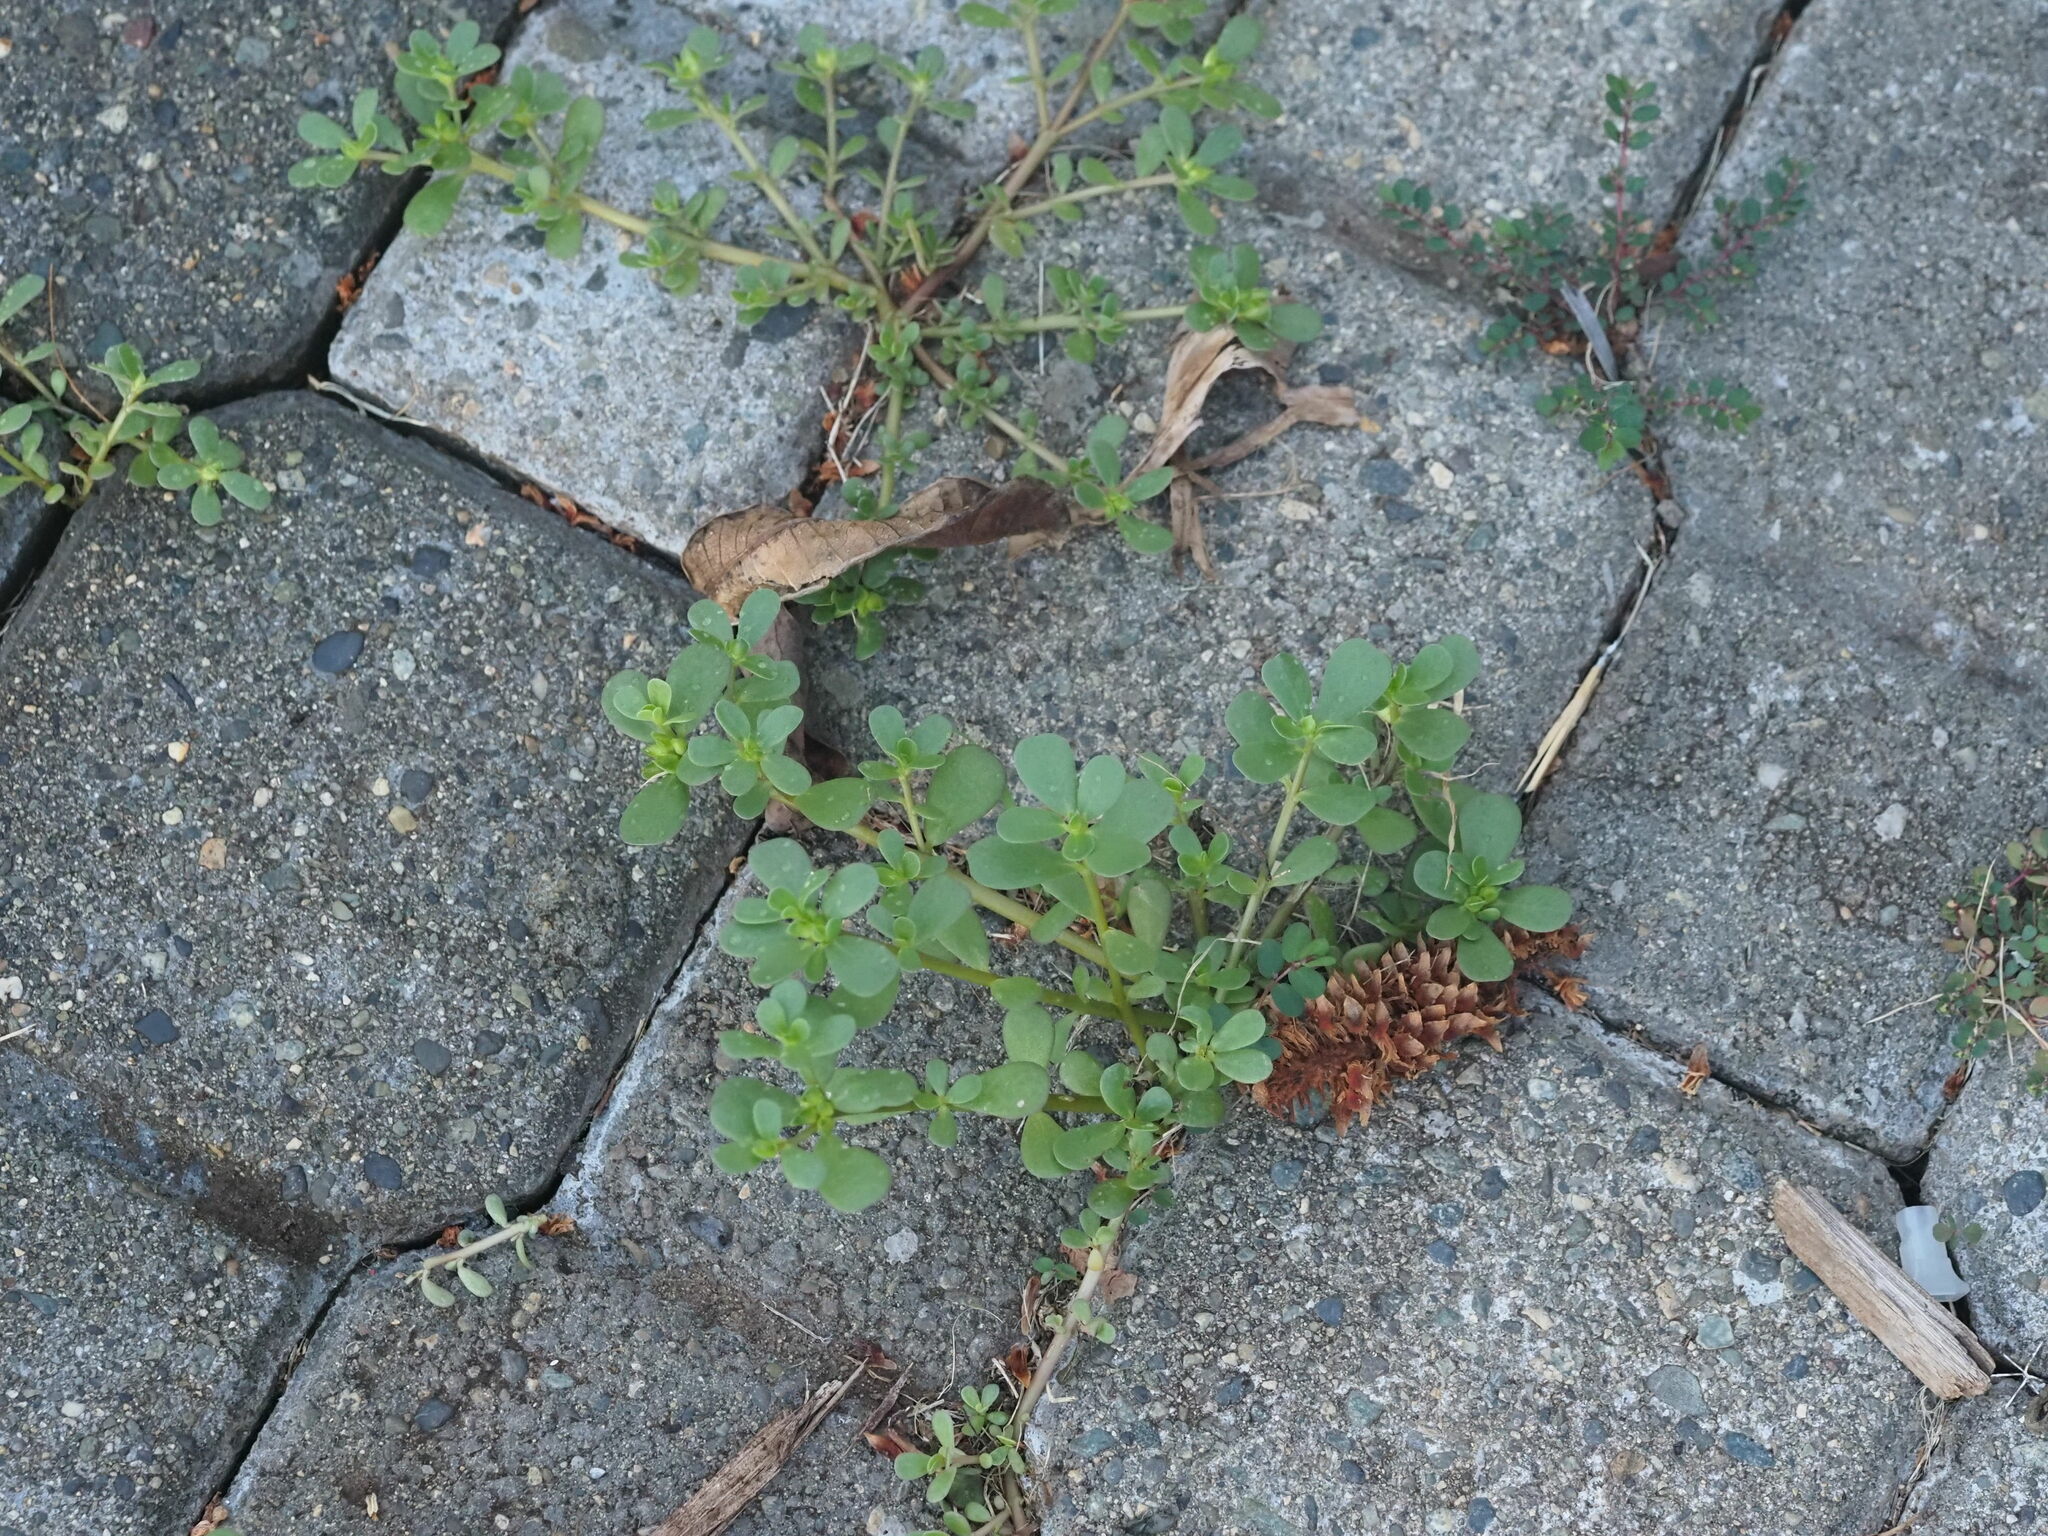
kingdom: Plantae
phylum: Tracheophyta
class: Magnoliopsida
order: Caryophyllales
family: Portulacaceae
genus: Portulaca
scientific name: Portulaca oleracea
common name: Common purslane
